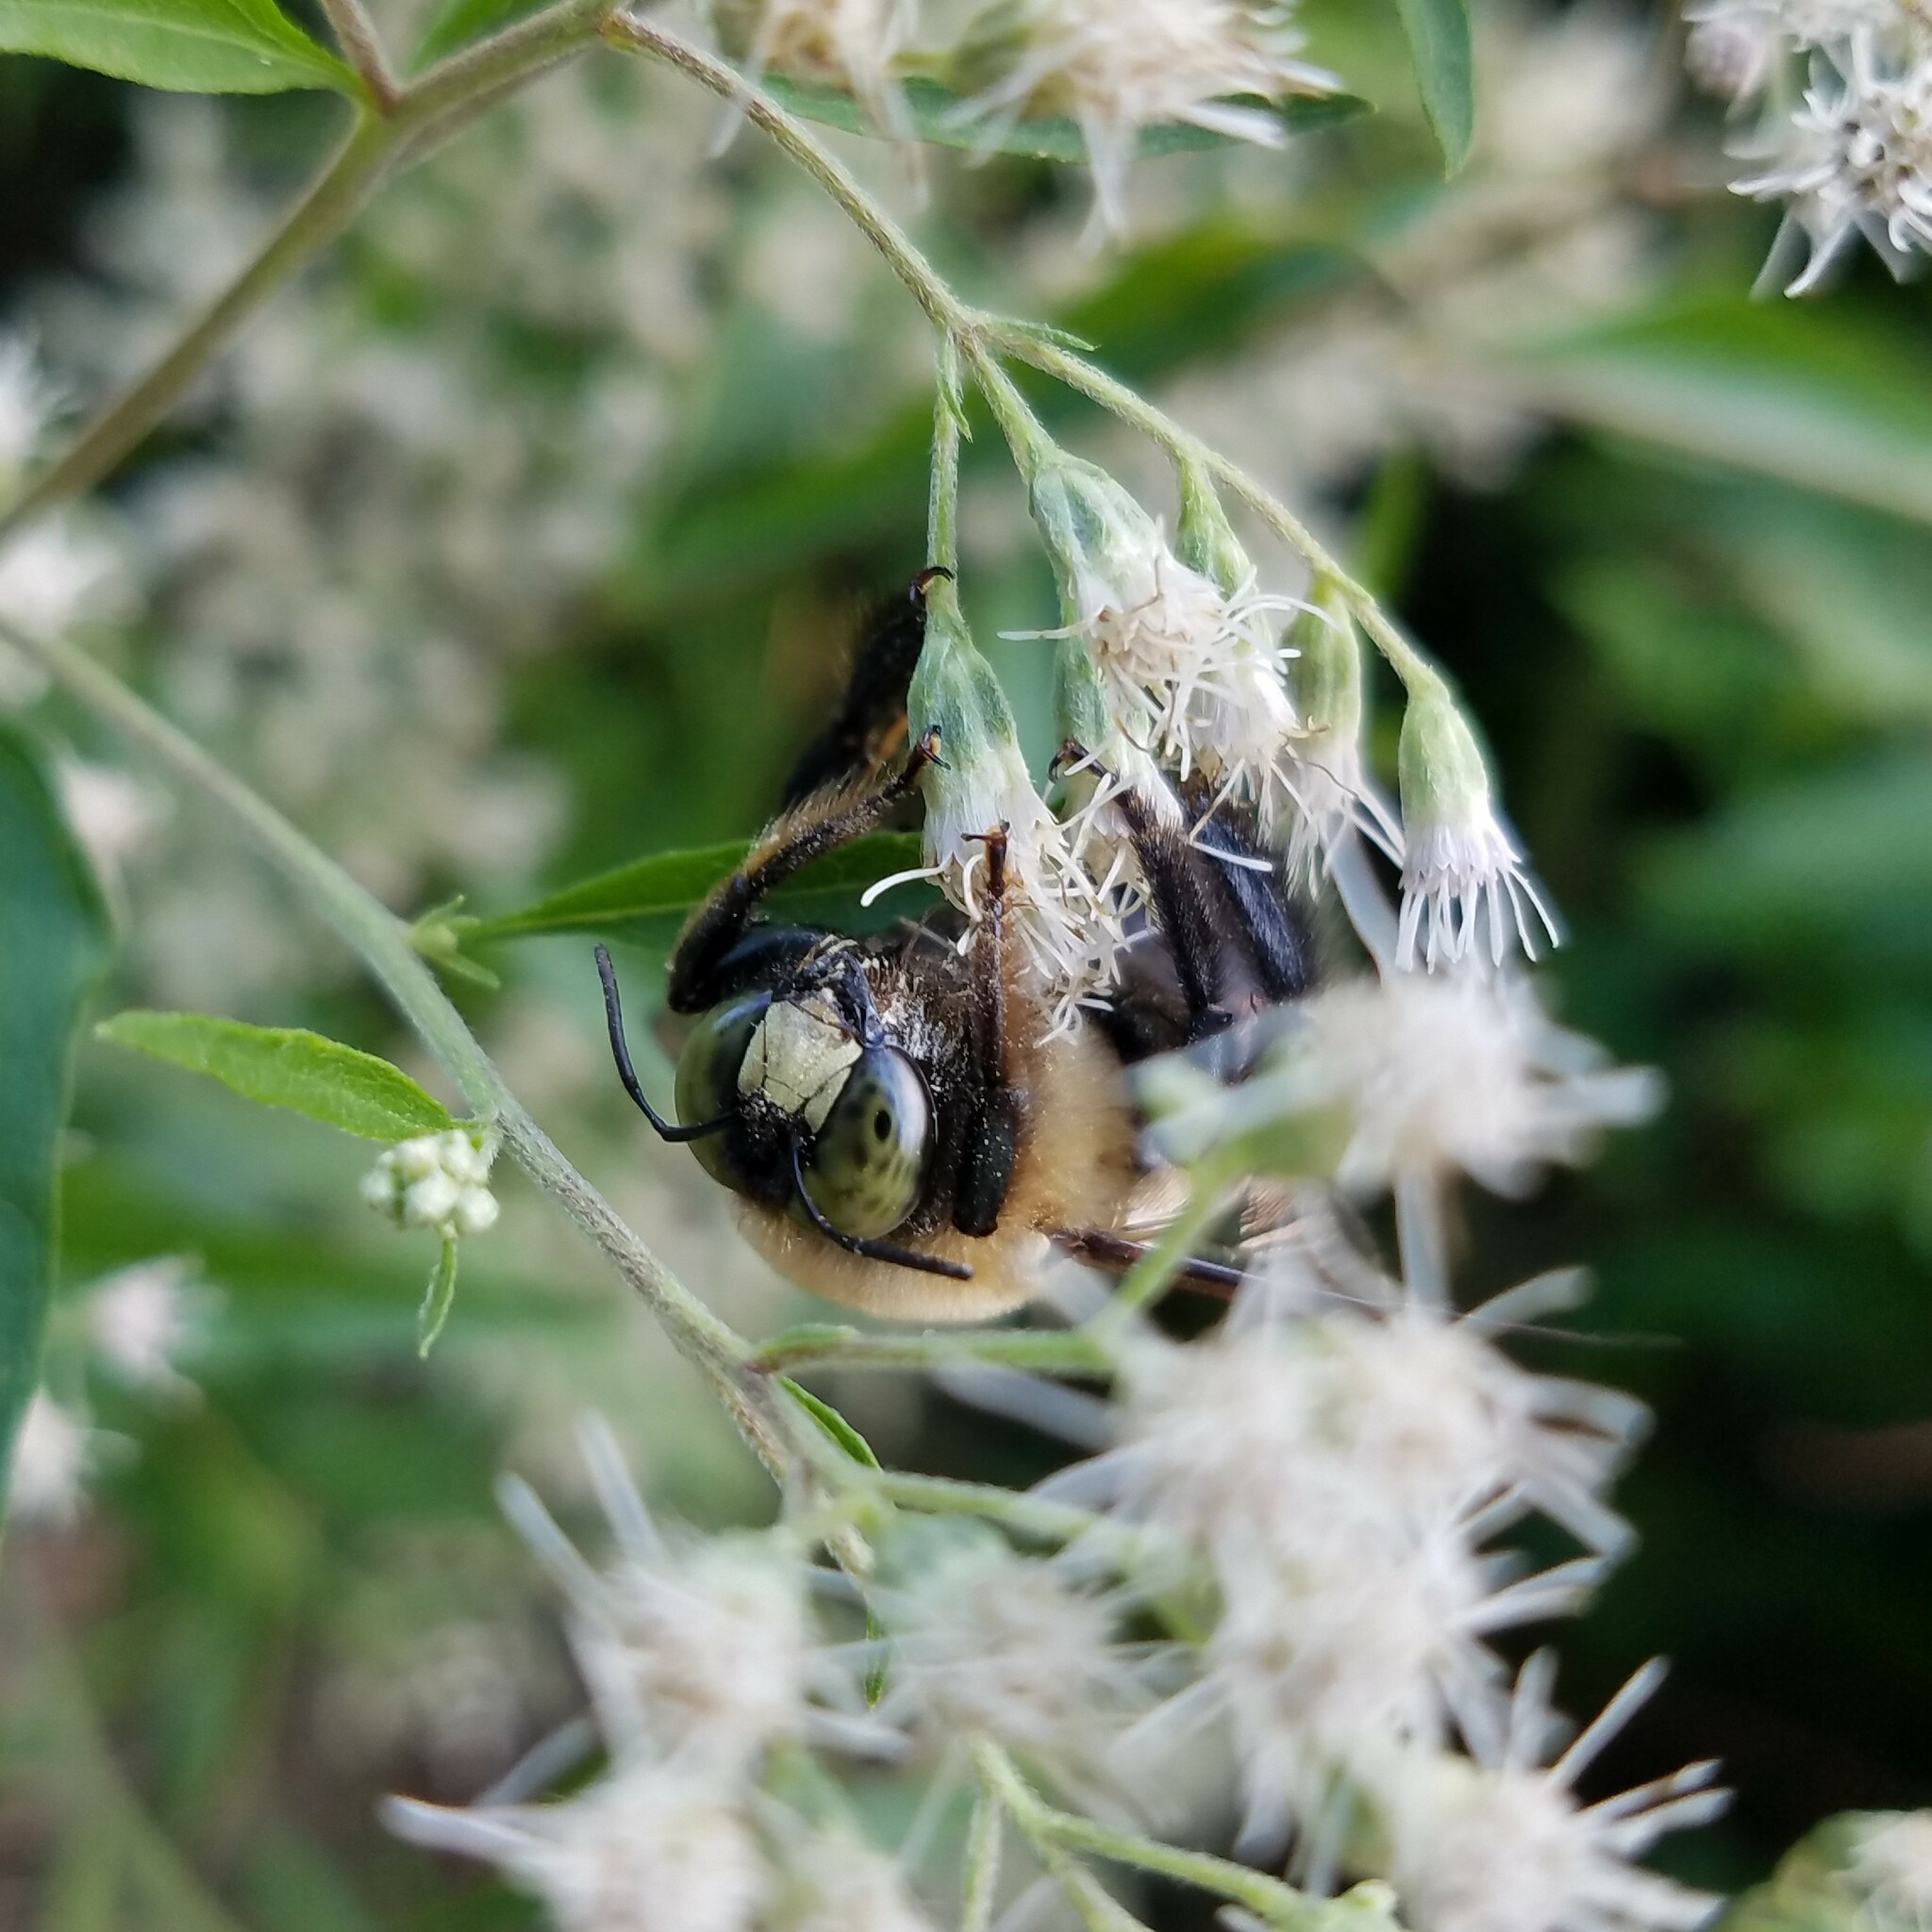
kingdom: Animalia
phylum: Arthropoda
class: Insecta
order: Hymenoptera
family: Apidae
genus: Xylocopa
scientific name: Xylocopa virginica
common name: Carpenter bee
